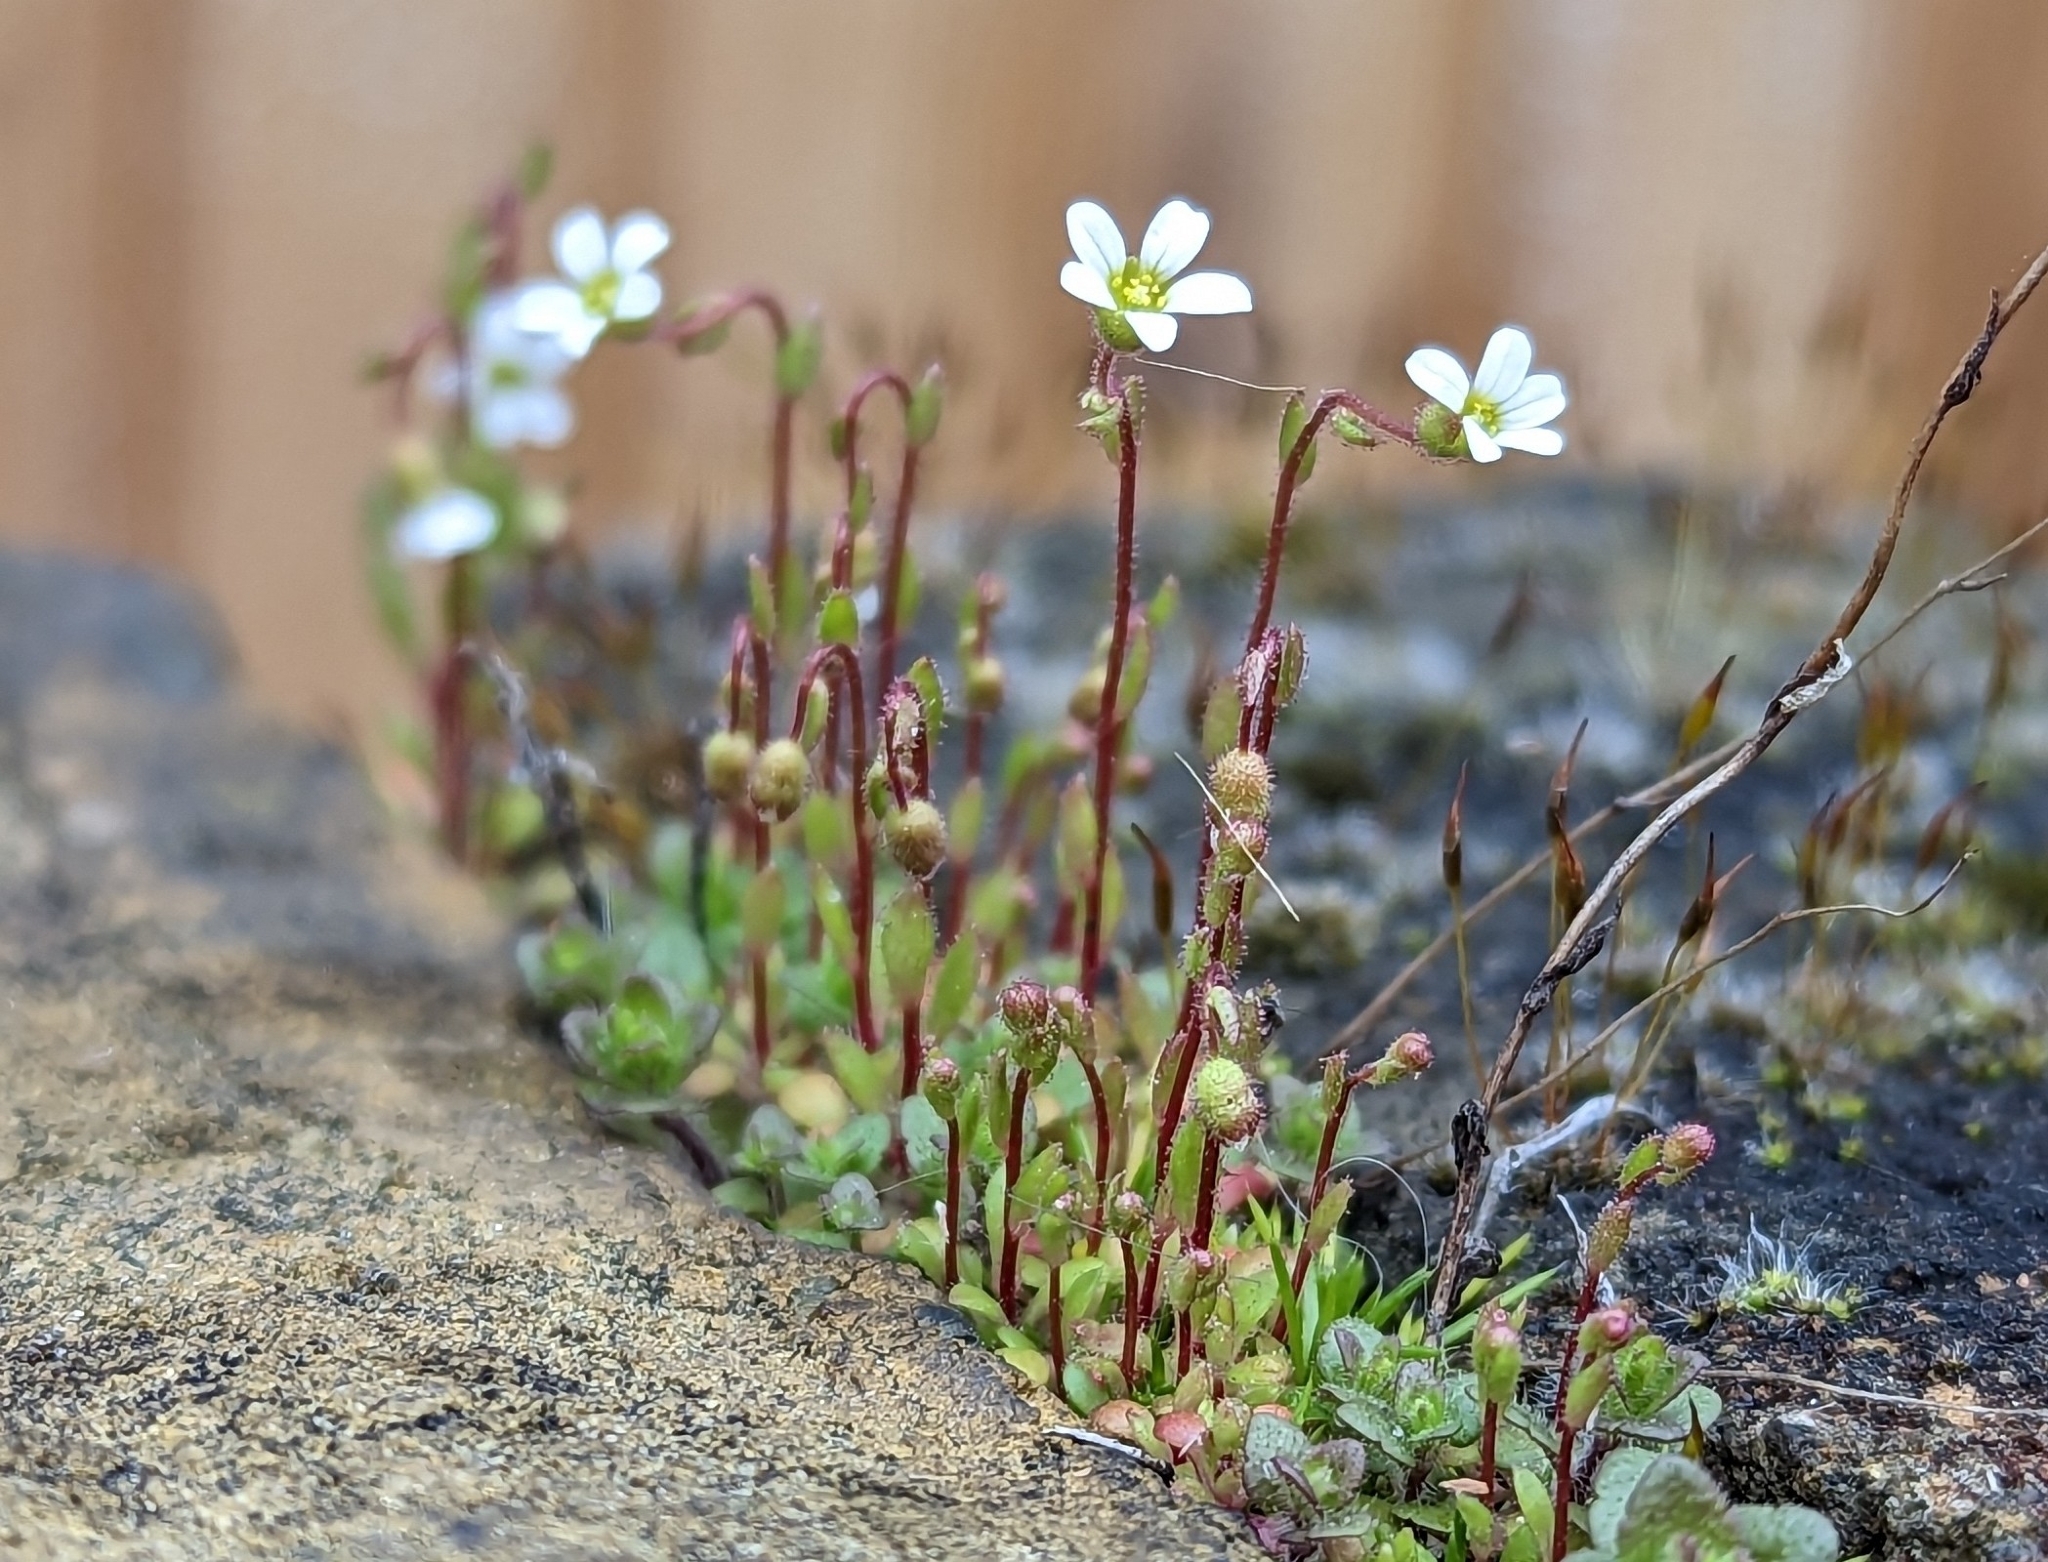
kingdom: Plantae
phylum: Tracheophyta
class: Magnoliopsida
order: Saxifragales
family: Saxifragaceae
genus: Saxifraga
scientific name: Saxifraga tridactylites
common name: Rue-leaved saxifrage
